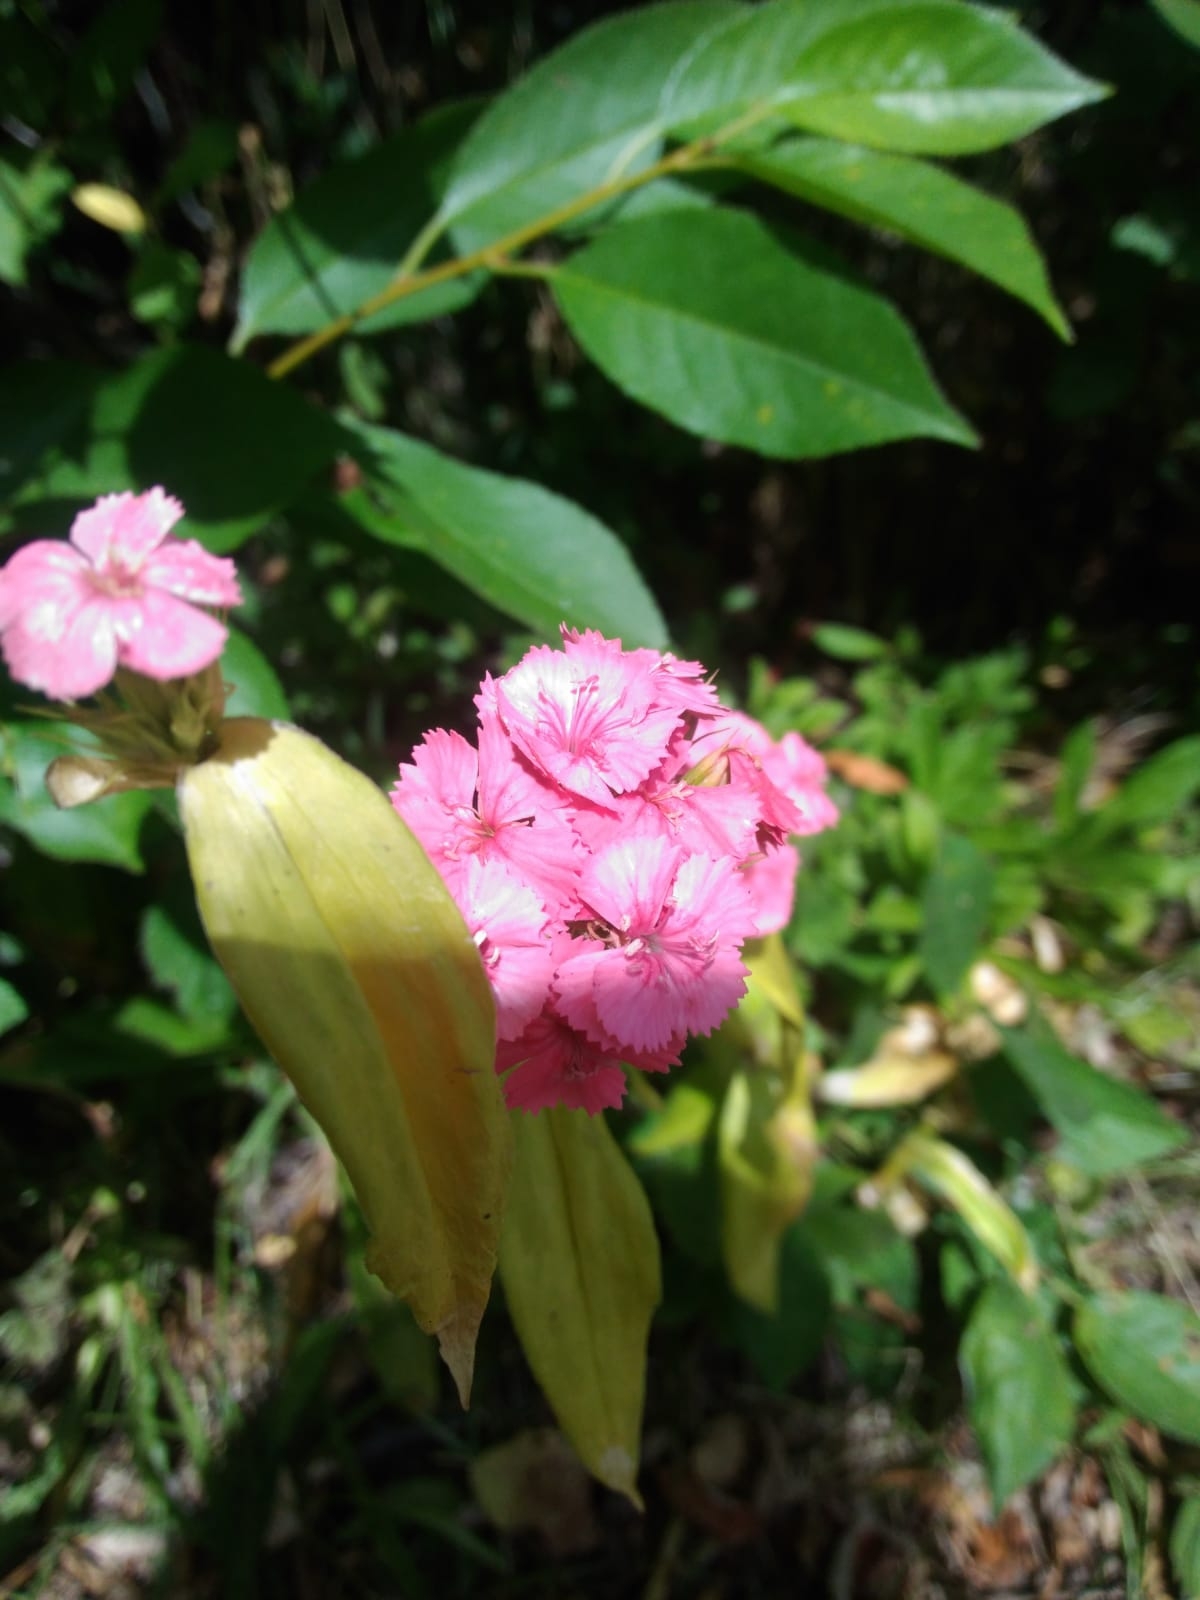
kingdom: Plantae
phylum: Tracheophyta
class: Magnoliopsida
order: Caryophyllales
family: Caryophyllaceae
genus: Dianthus
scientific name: Dianthus barbatus
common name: Sweet-william
